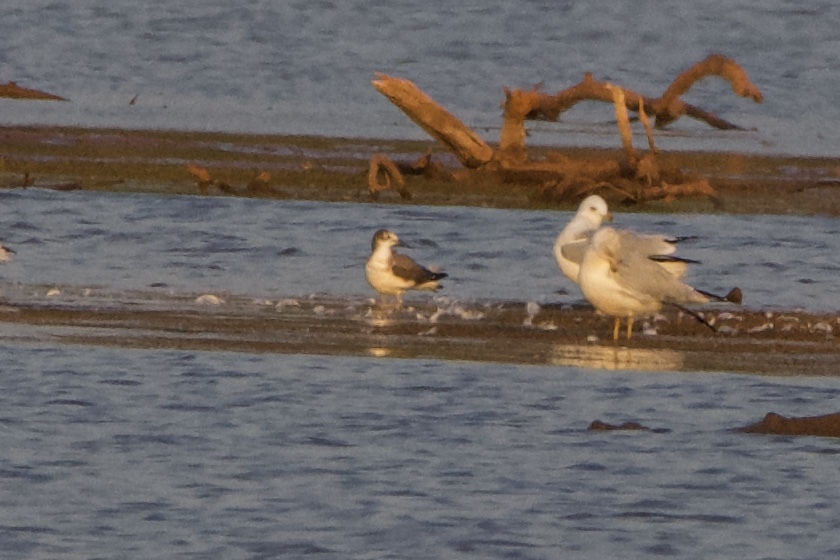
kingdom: Animalia
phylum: Chordata
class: Aves
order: Charadriiformes
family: Laridae
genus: Xema
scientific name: Xema sabini
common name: Sabine's gull
